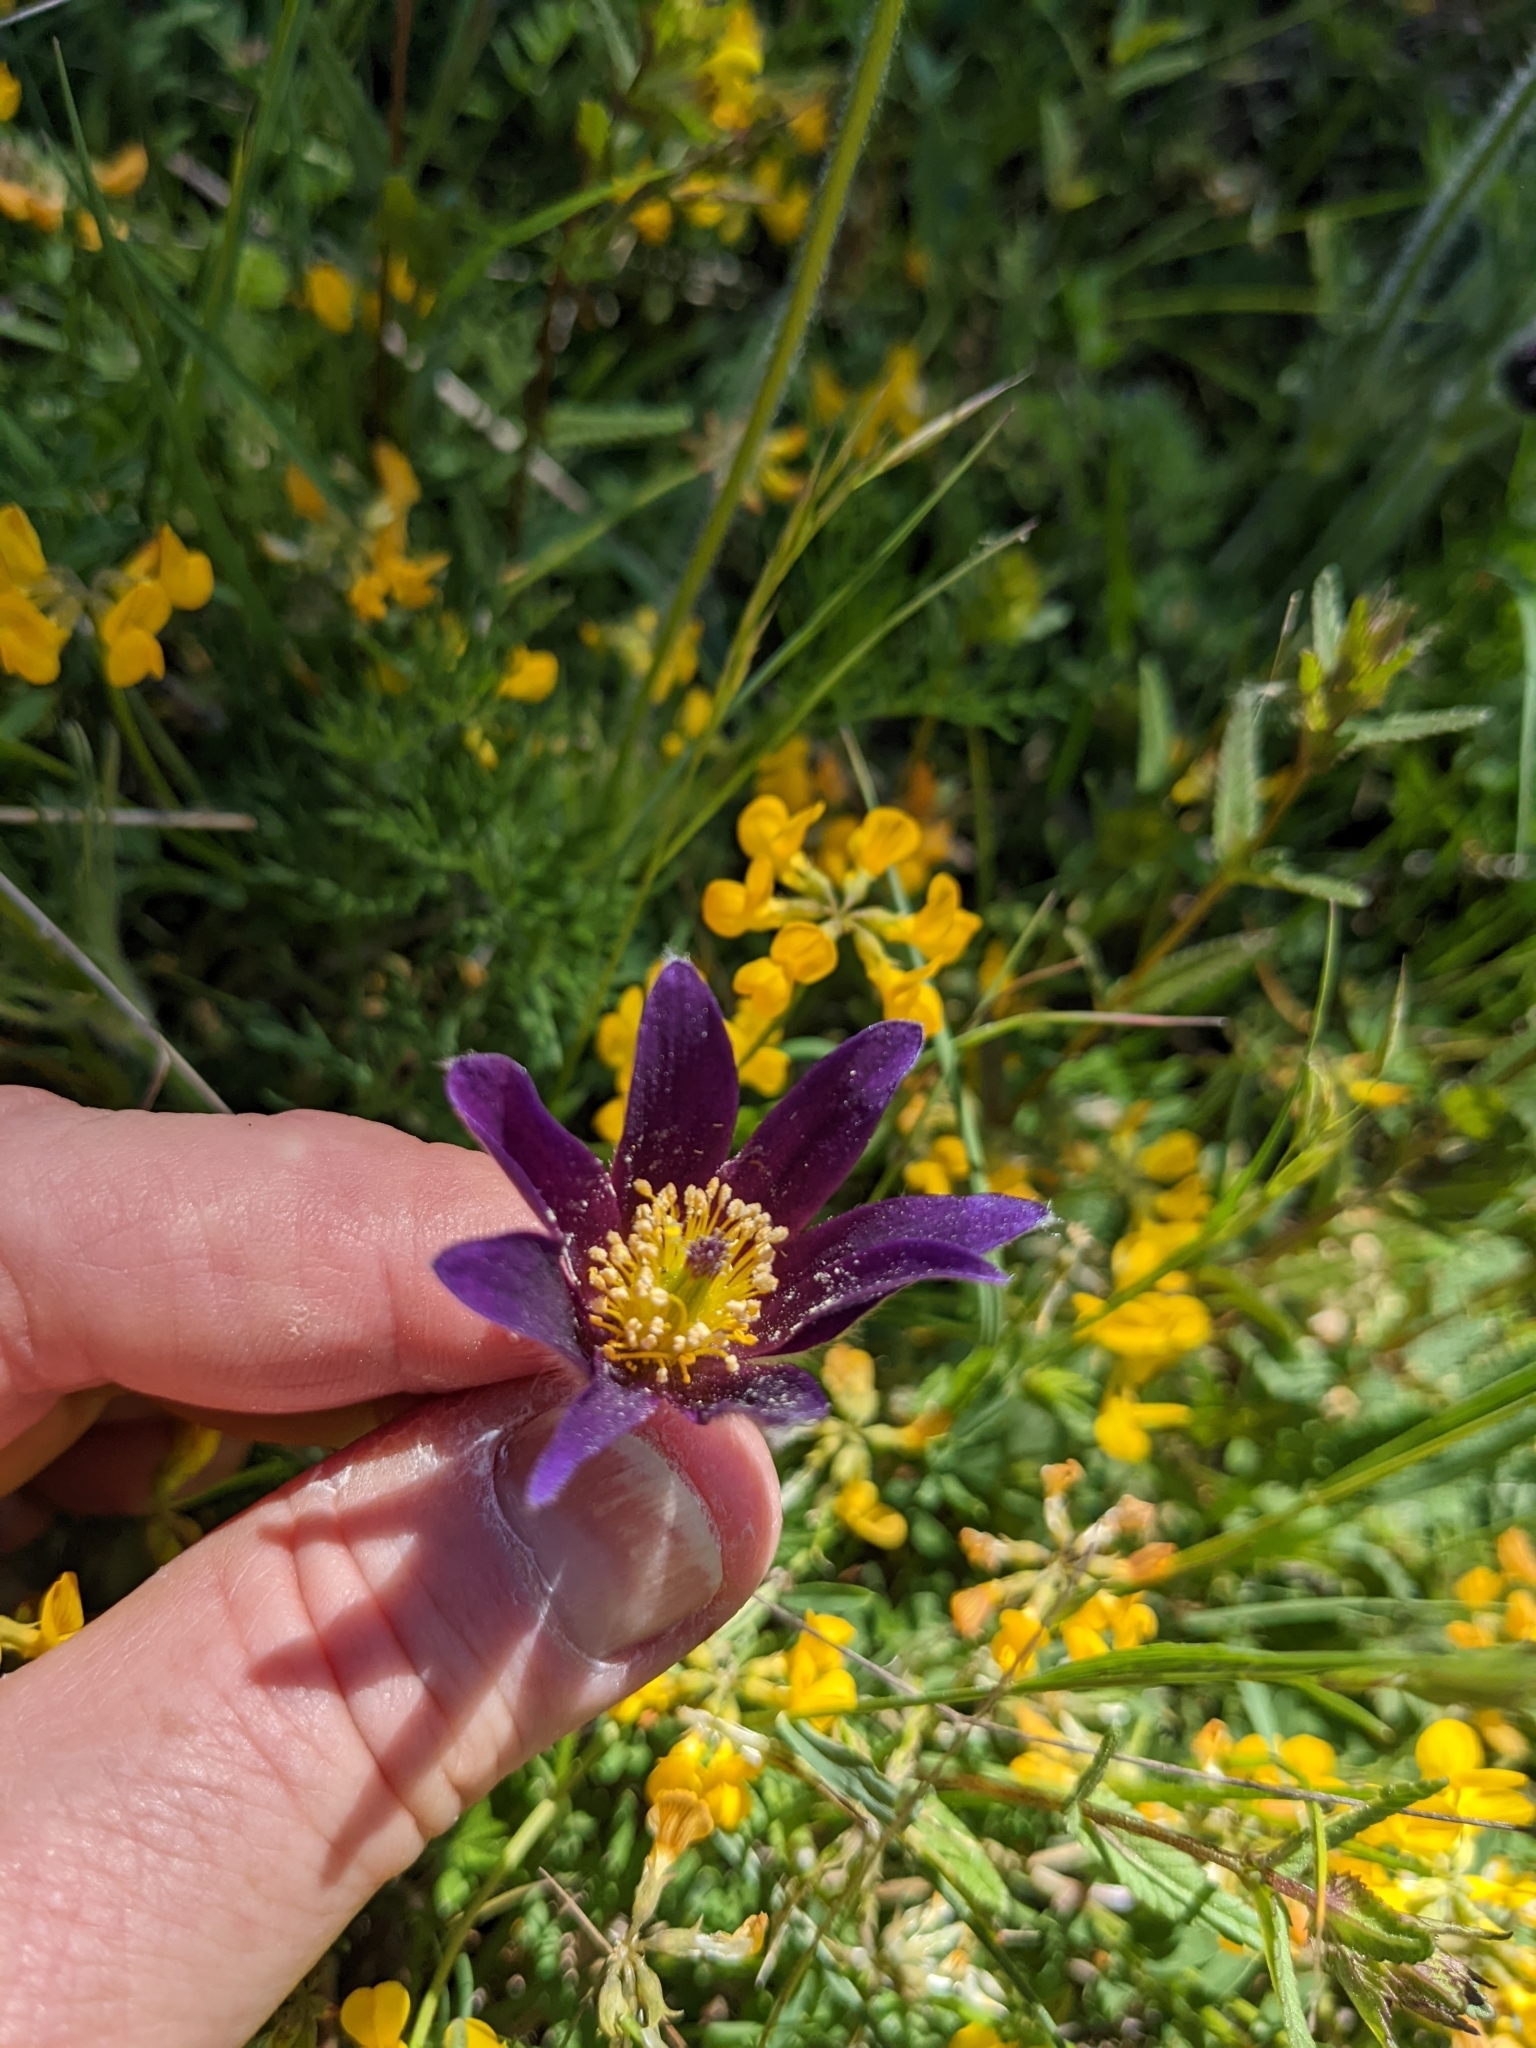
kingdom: Plantae
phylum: Tracheophyta
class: Magnoliopsida
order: Ranunculales
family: Ranunculaceae
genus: Pulsatilla
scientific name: Pulsatilla vulgaris
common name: Pasqueflower
